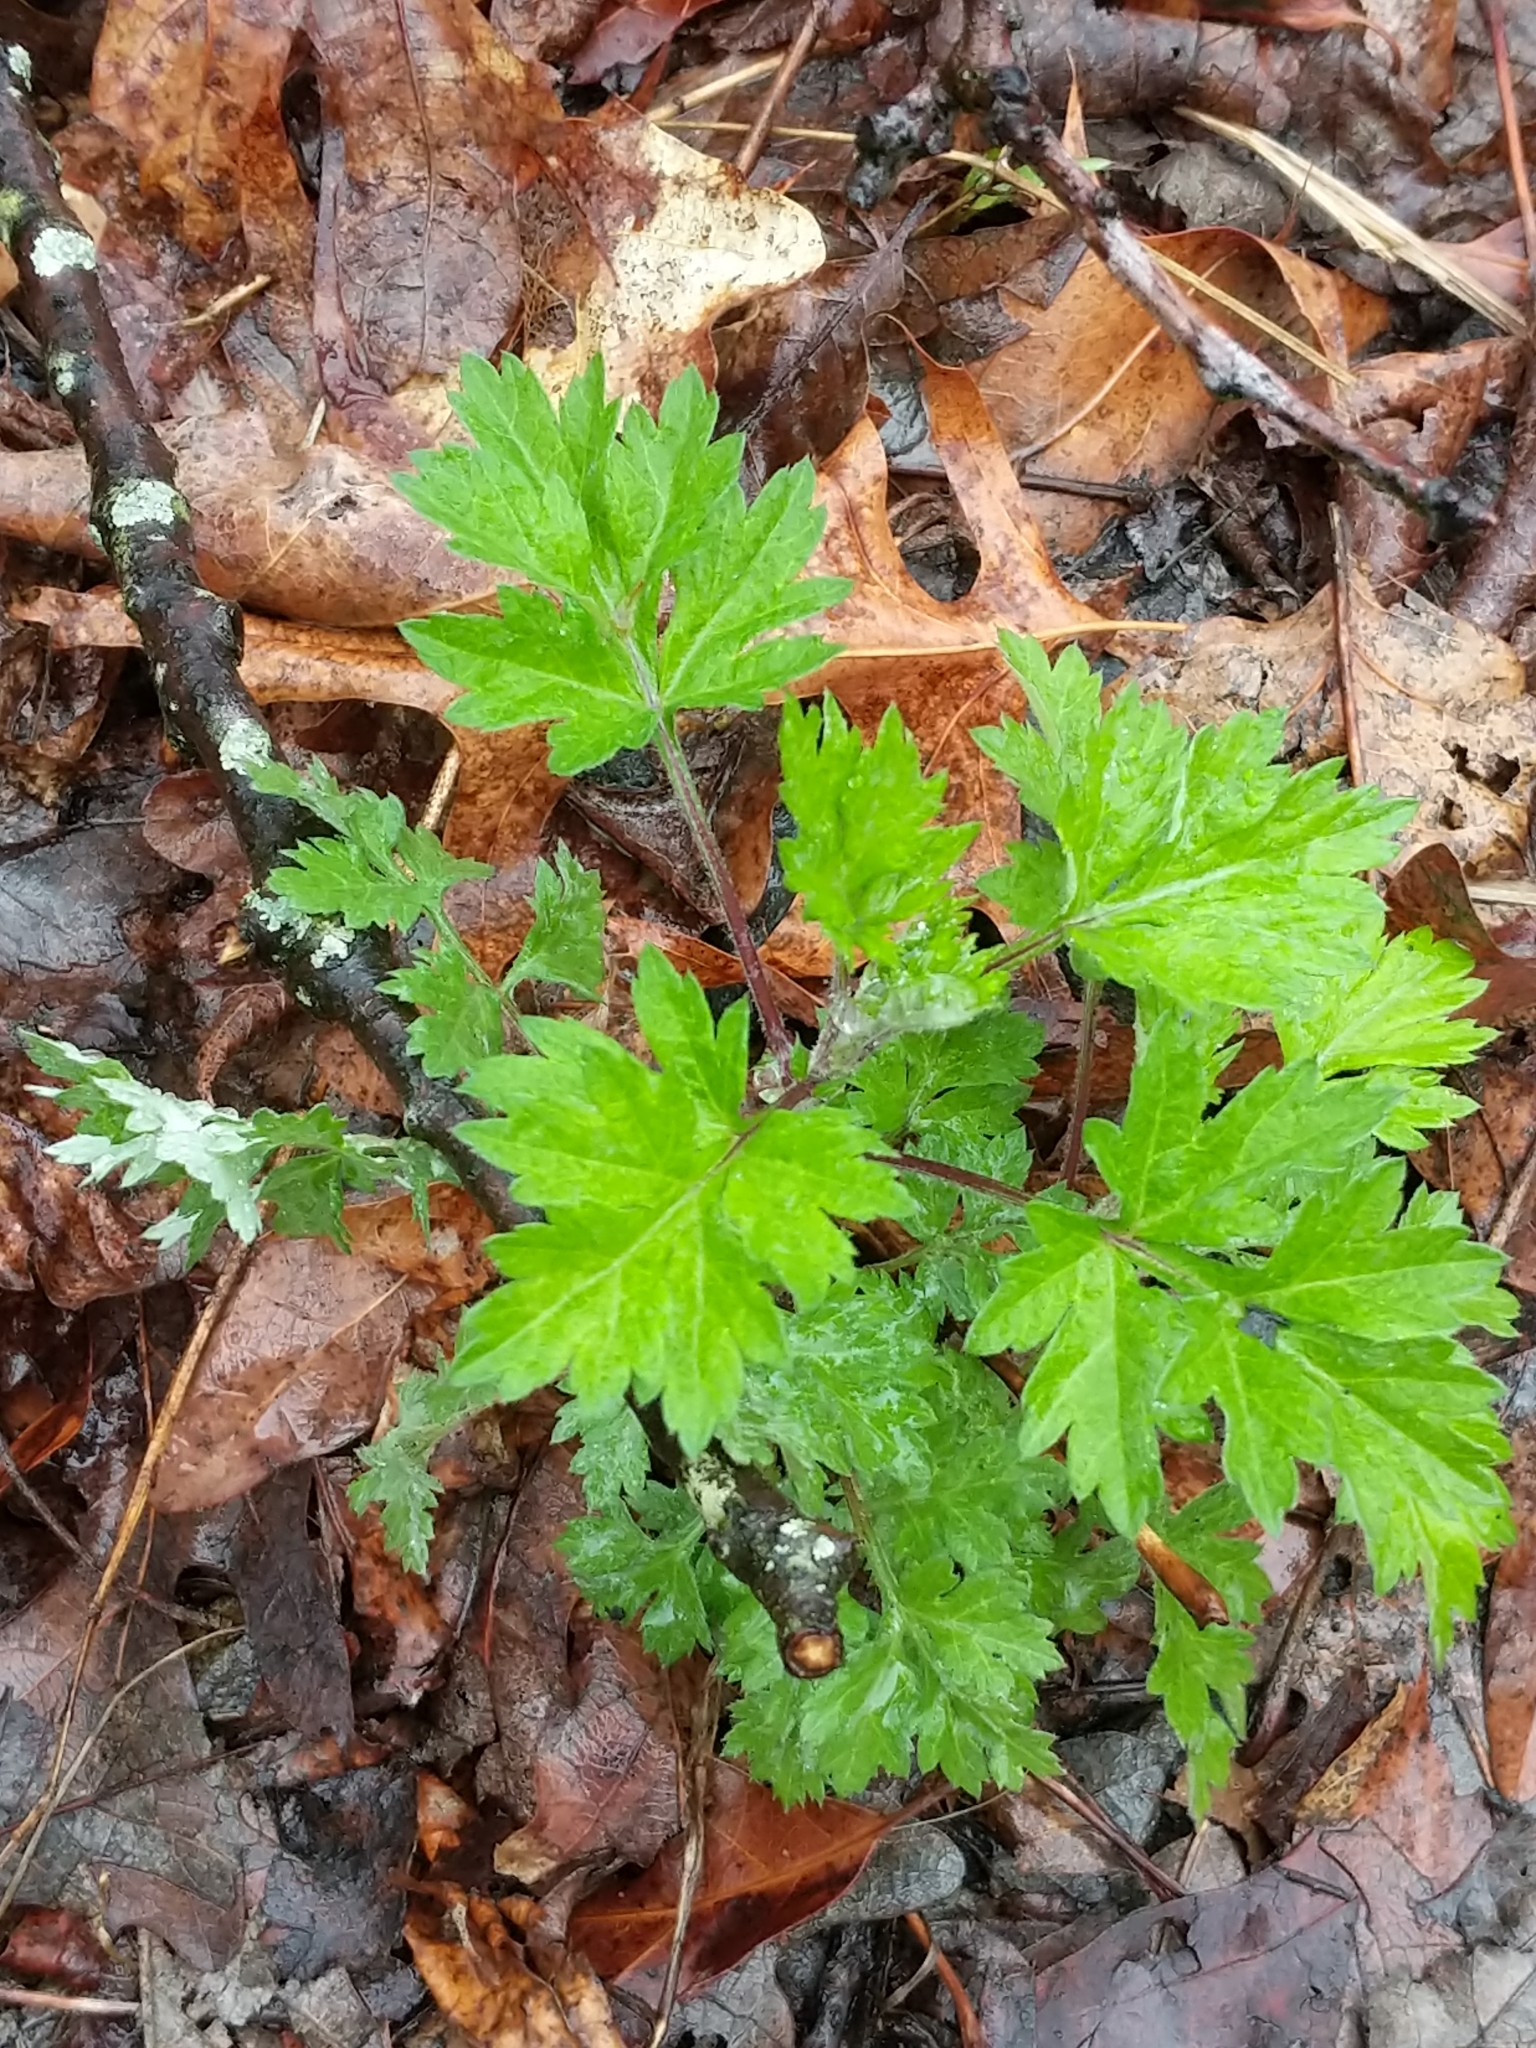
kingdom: Plantae
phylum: Tracheophyta
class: Magnoliopsida
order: Asterales
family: Asteraceae
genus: Artemisia
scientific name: Artemisia vulgaris
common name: Mugwort
